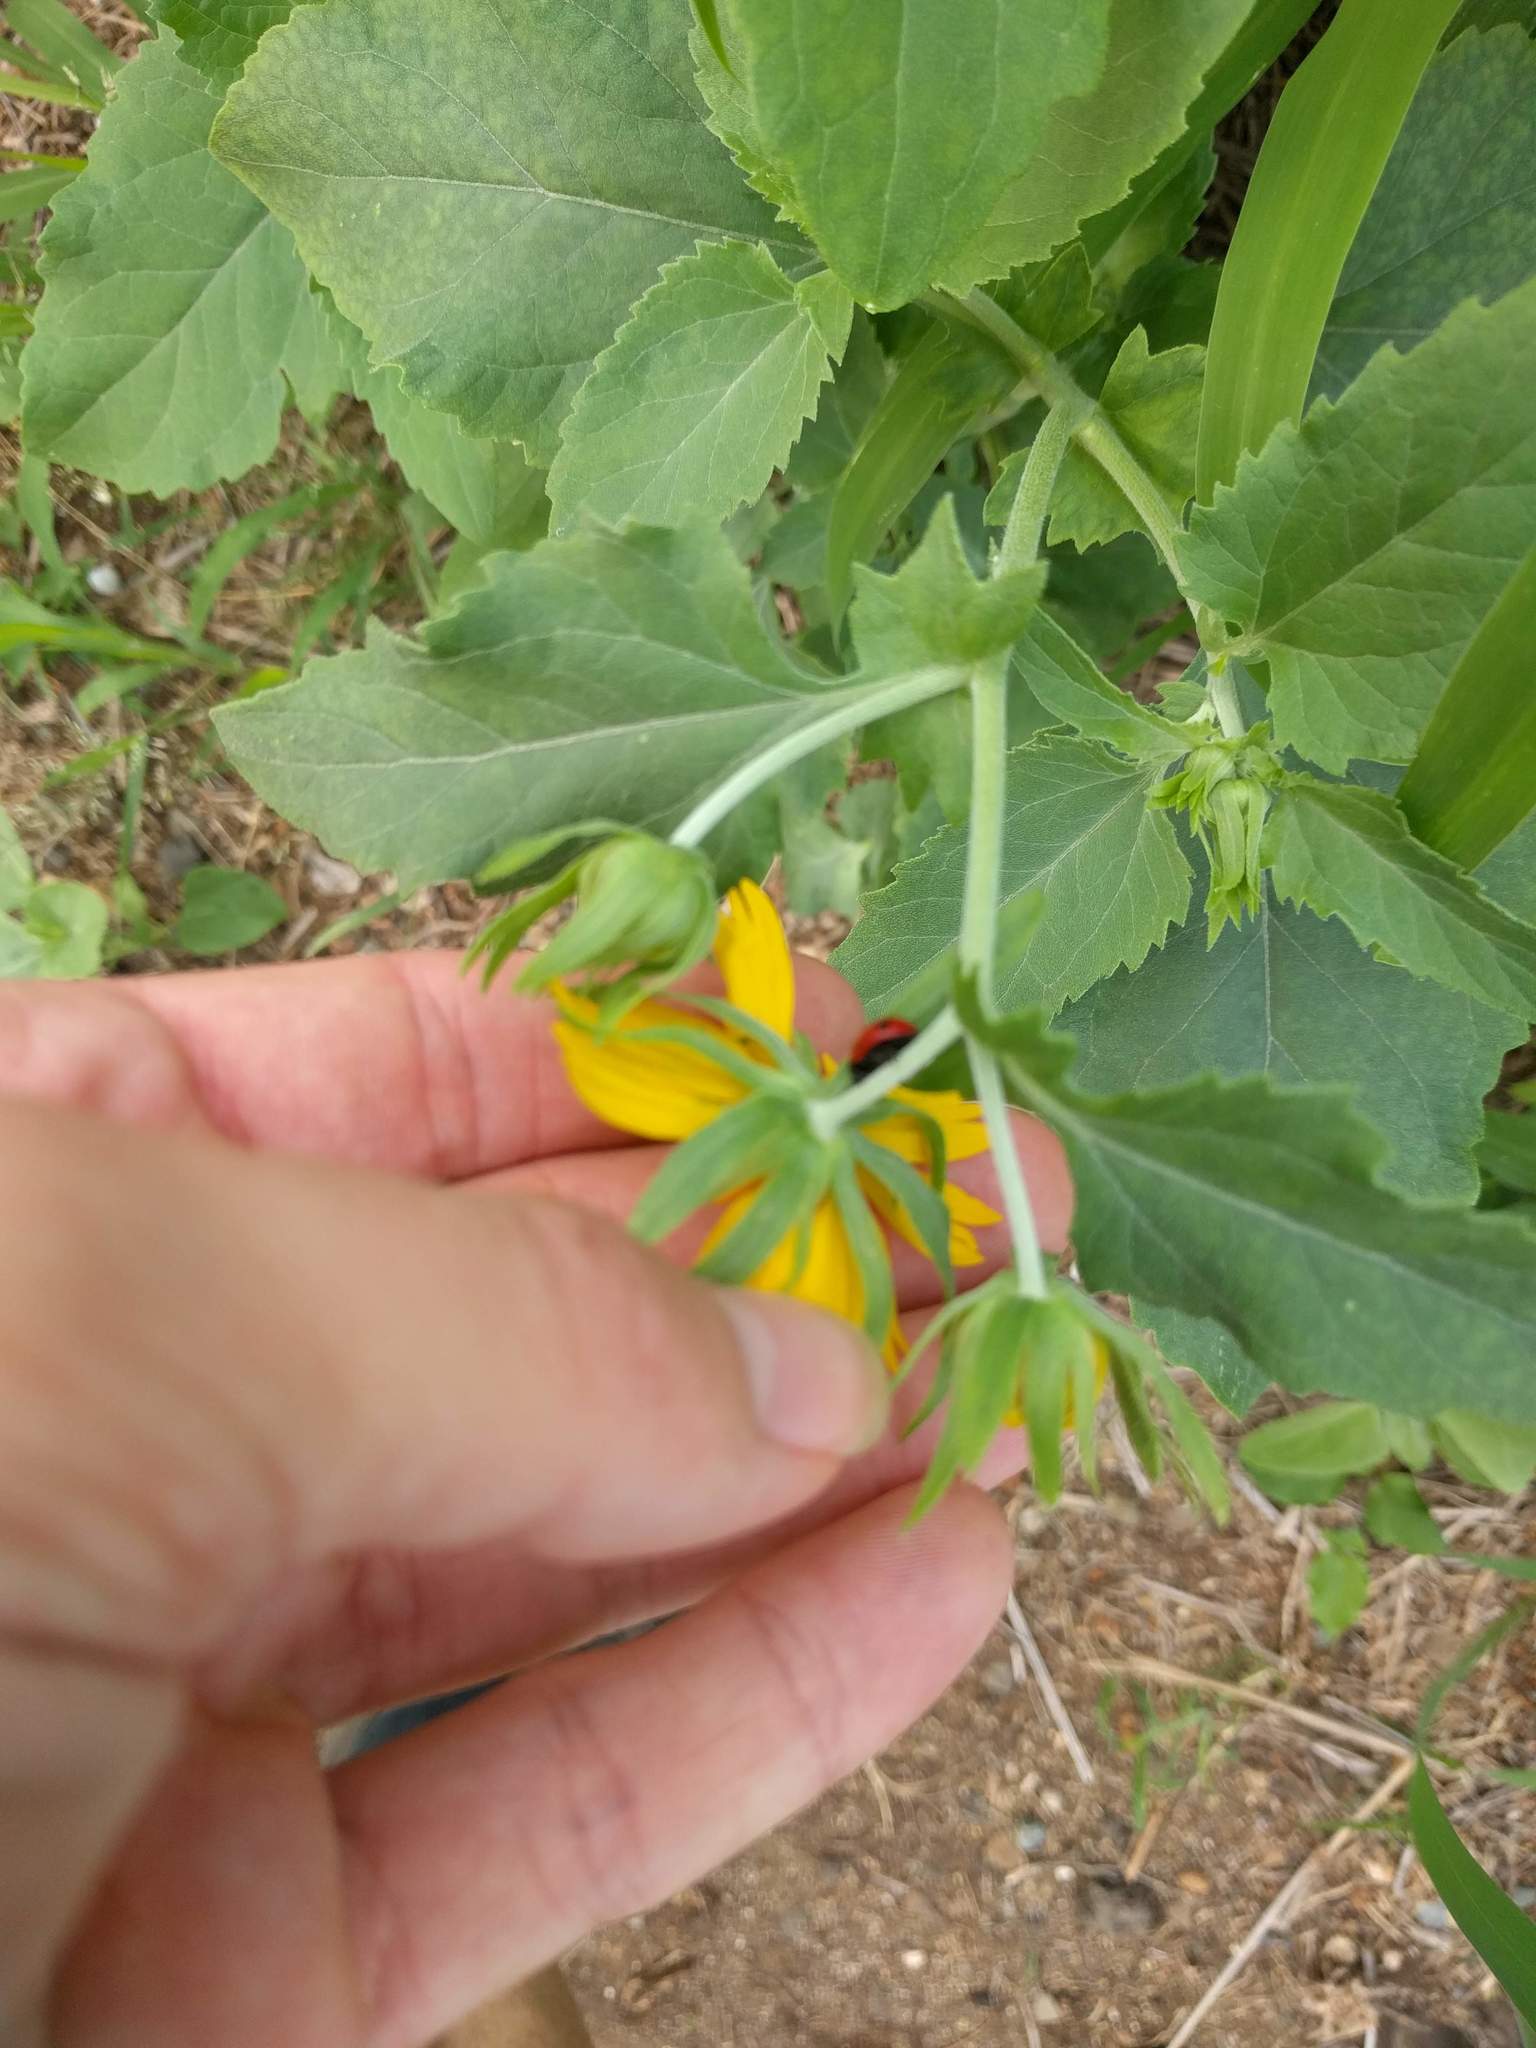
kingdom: Plantae
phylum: Tracheophyta
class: Magnoliopsida
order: Asterales
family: Asteraceae
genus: Verbesina
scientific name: Verbesina encelioides
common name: Golden crownbeard
